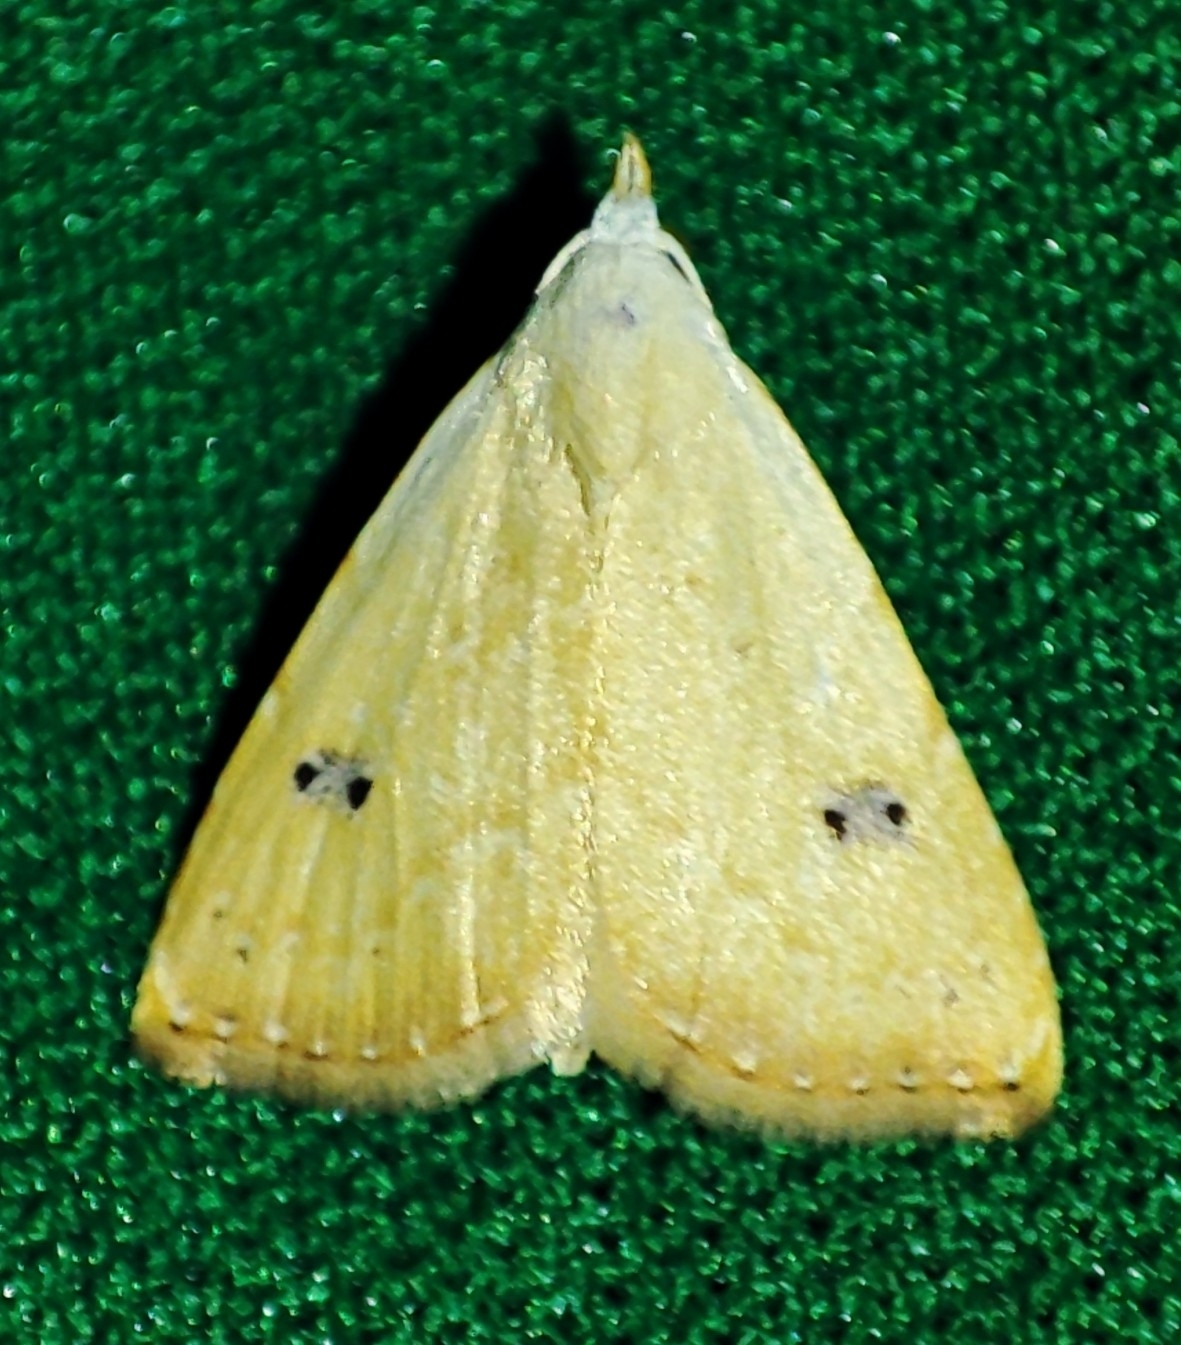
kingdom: Animalia
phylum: Arthropoda
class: Insecta
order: Lepidoptera
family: Erebidae
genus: Rivula
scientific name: Rivula sericealis
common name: Straw dot
